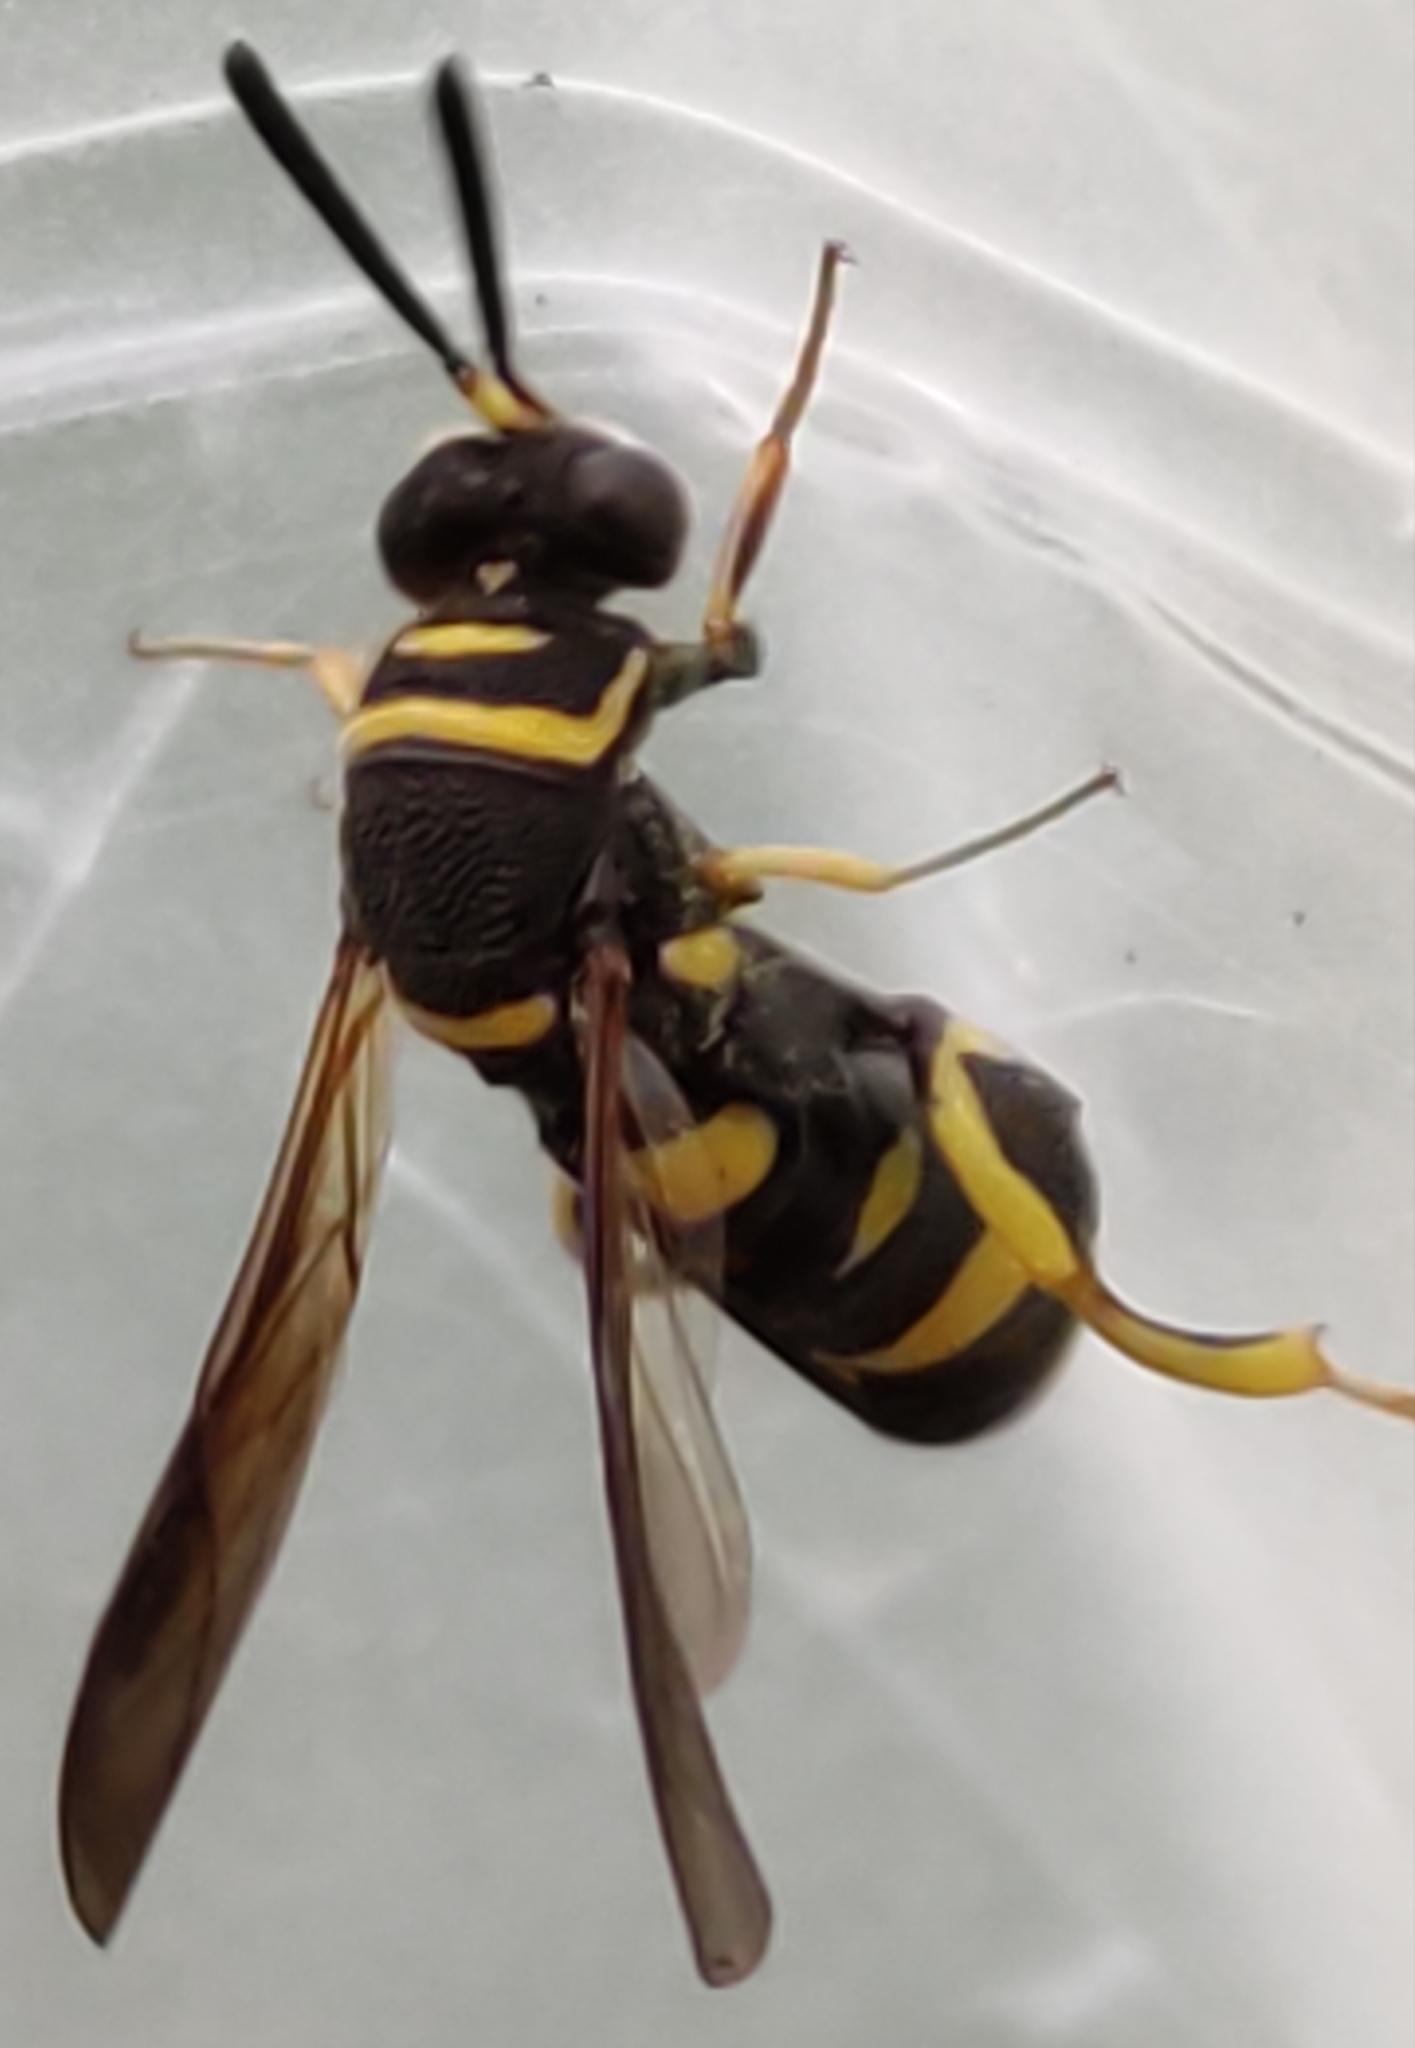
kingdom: Animalia
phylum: Arthropoda
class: Insecta
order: Hymenoptera
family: Leucospidae
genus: Leucospis
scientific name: Leucospis dorsigera
